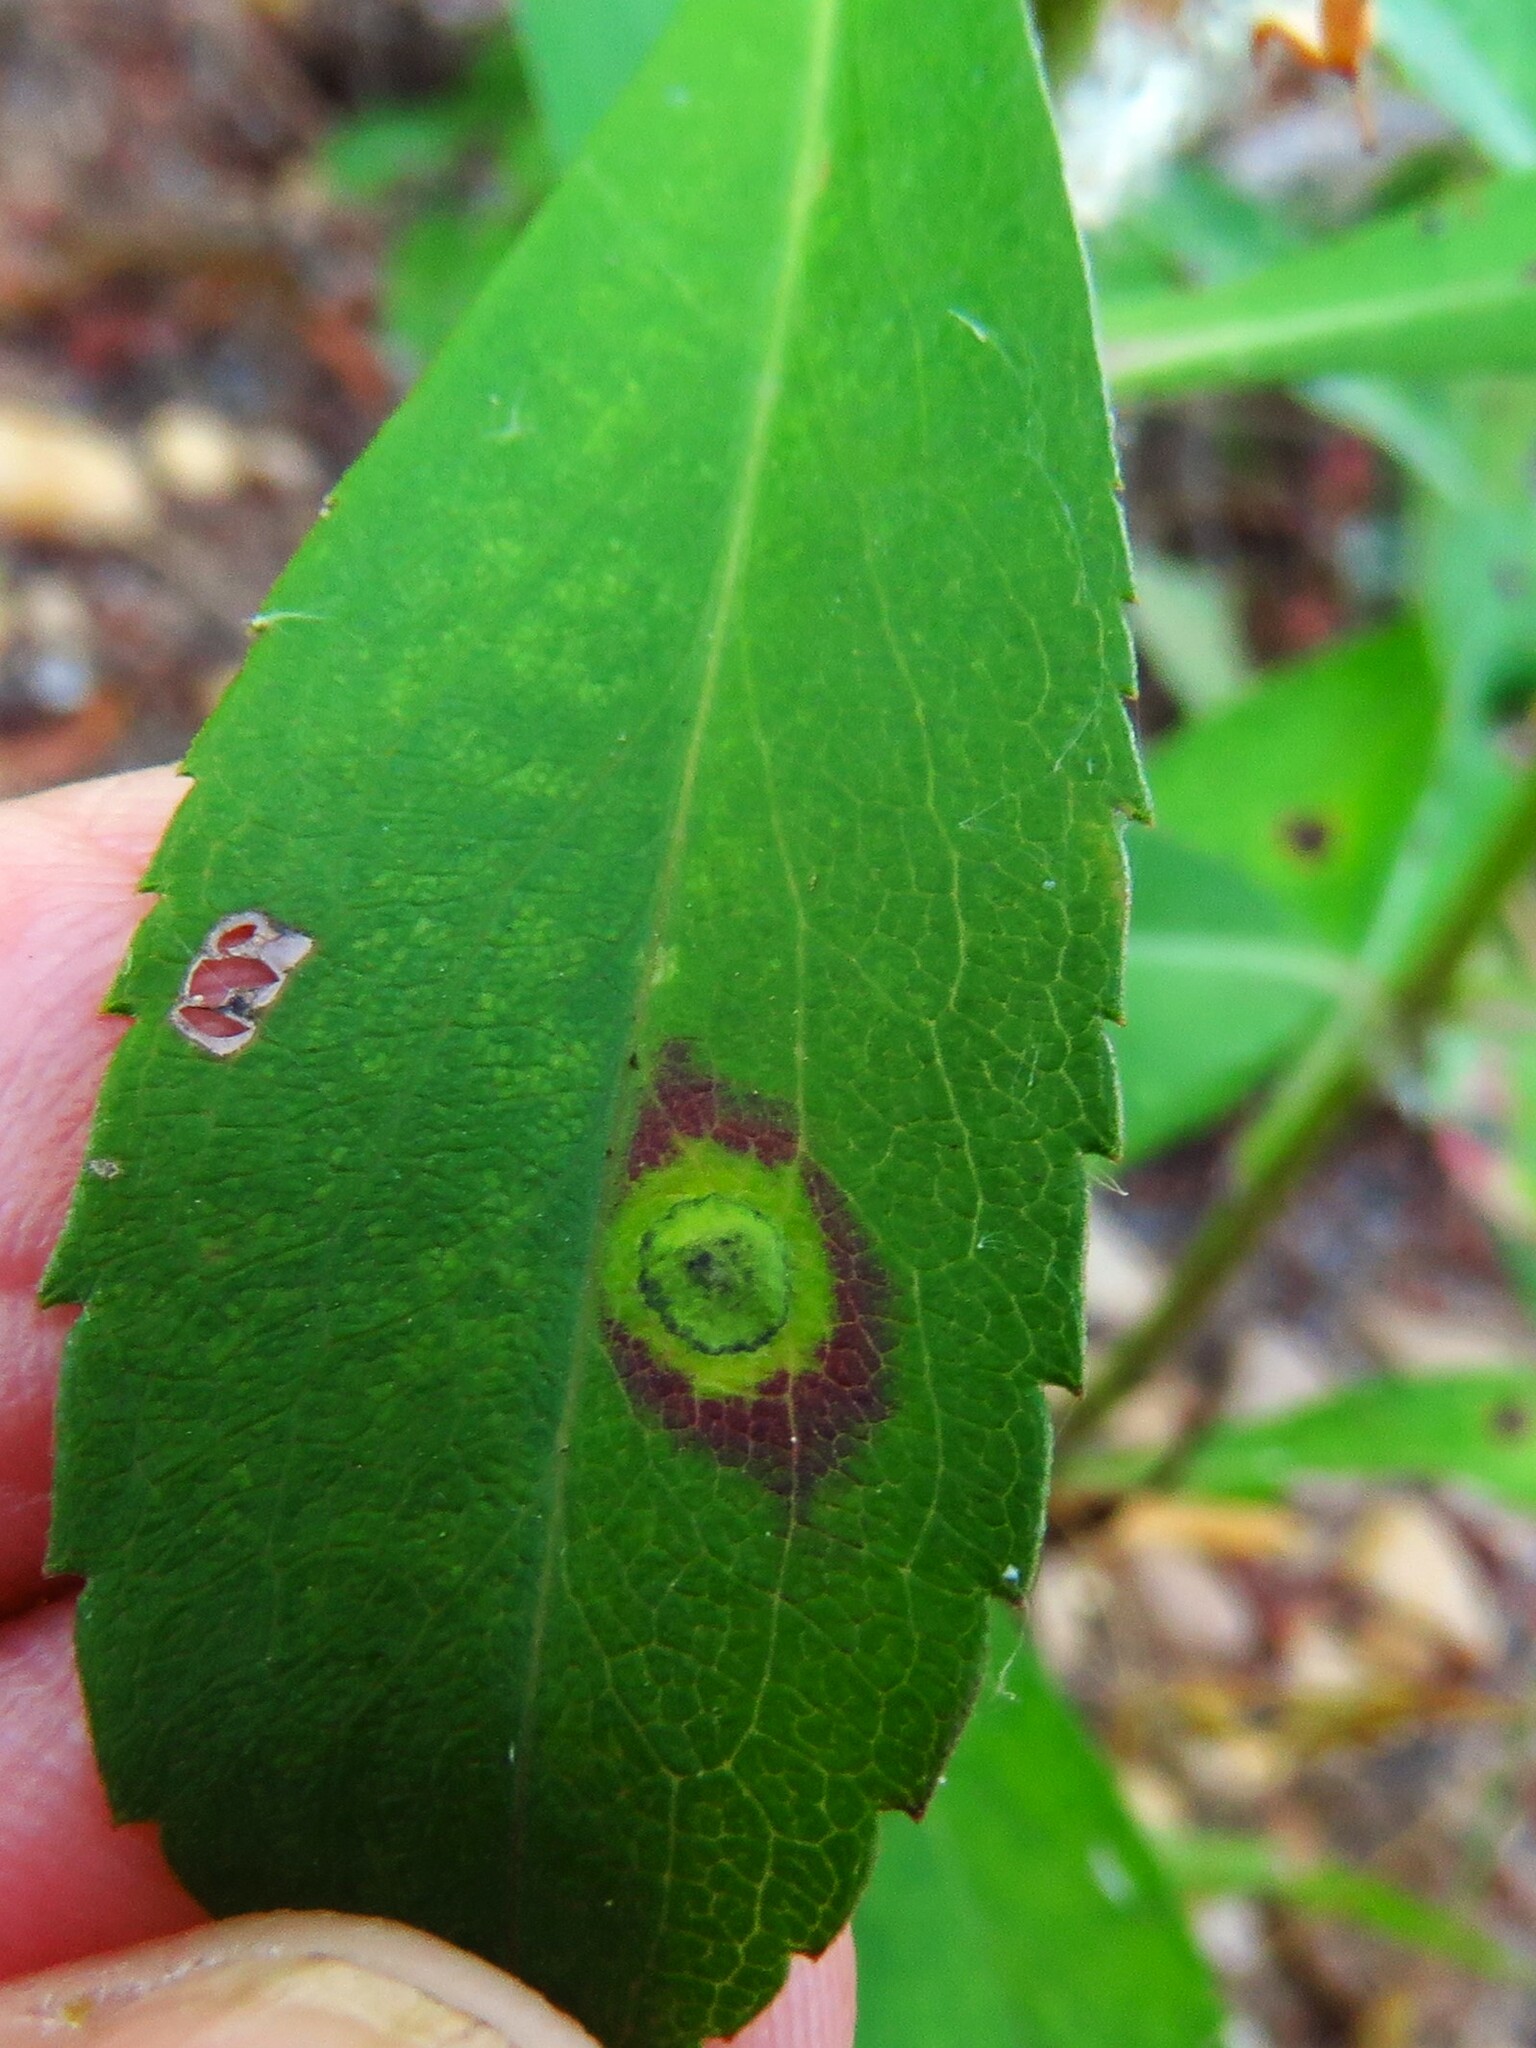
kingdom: Animalia
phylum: Arthropoda
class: Insecta
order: Diptera
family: Cecidomyiidae
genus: Asteromyia
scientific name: Asteromyia carbonifera
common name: Carbonifera goldenrod gall midge
